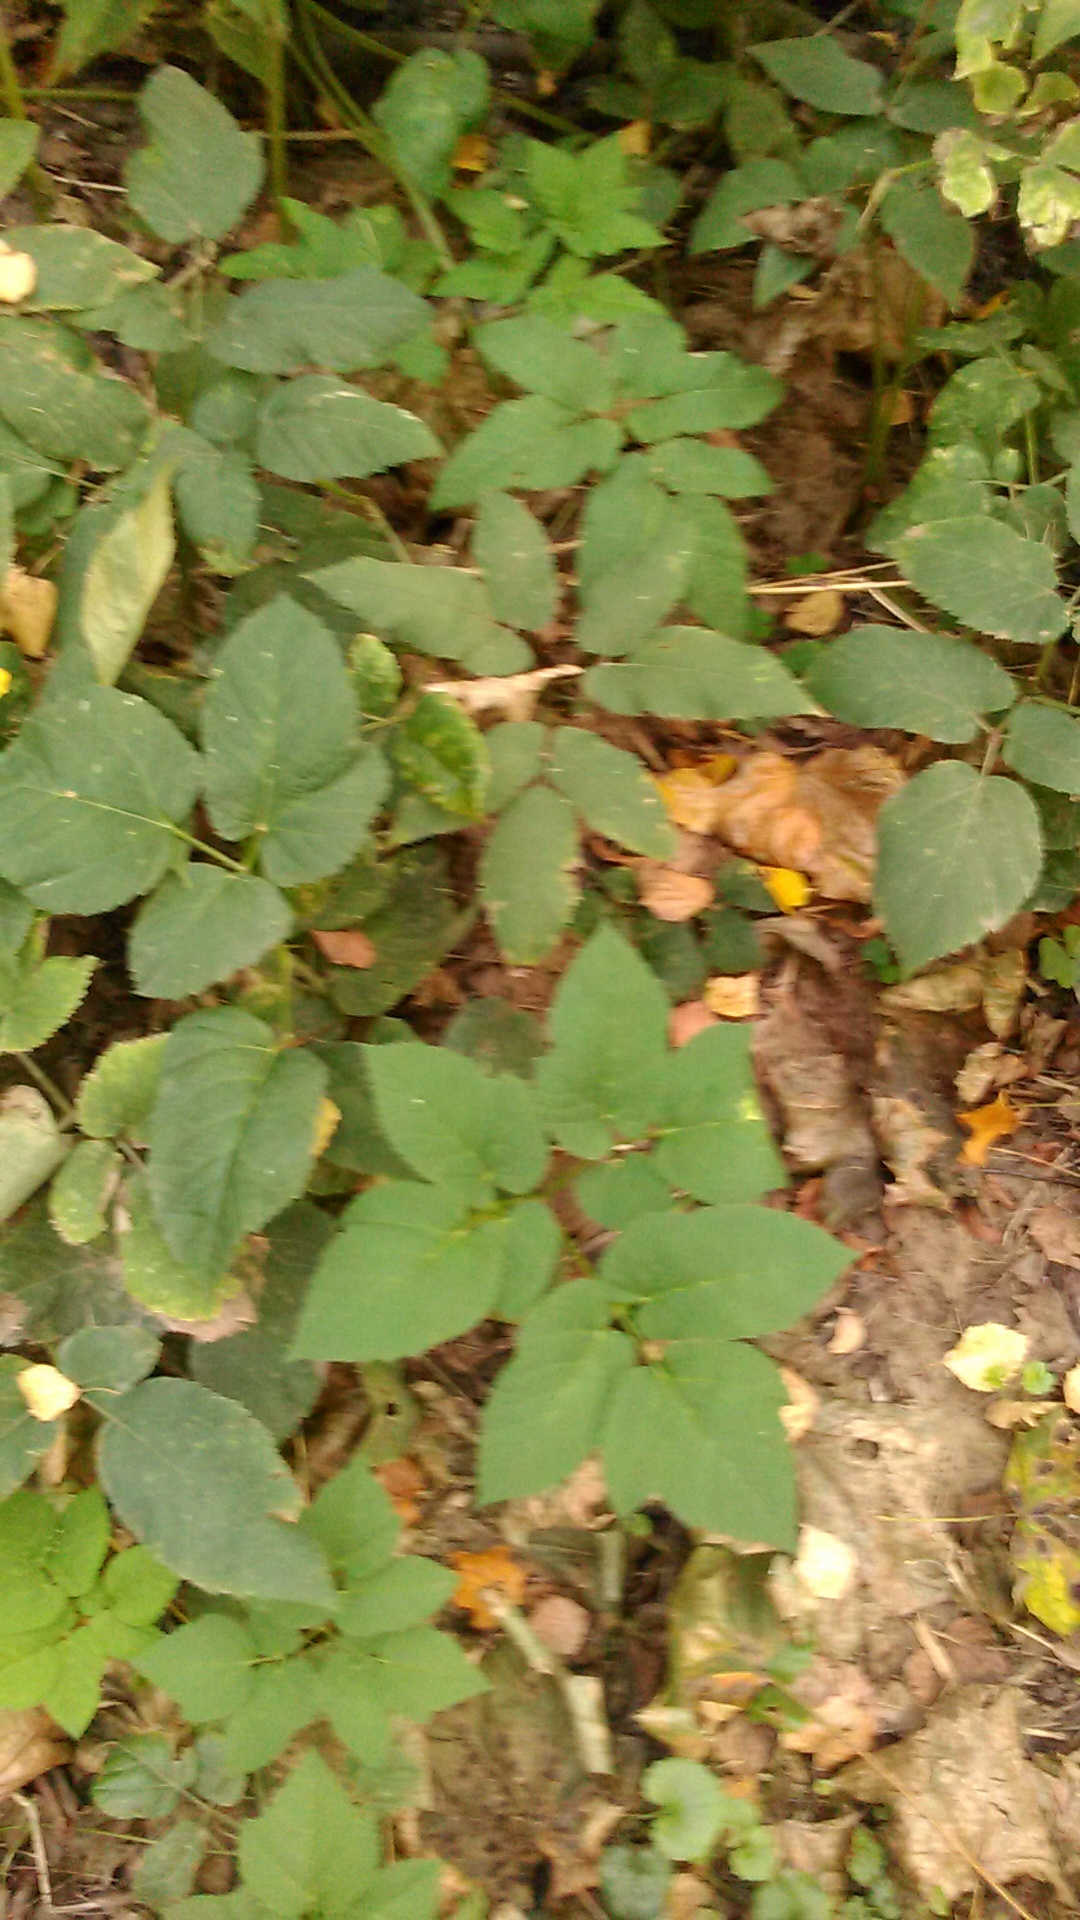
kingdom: Plantae
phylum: Tracheophyta
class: Magnoliopsida
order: Apiales
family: Apiaceae
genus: Aegopodium
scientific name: Aegopodium podagraria
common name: Ground-elder
